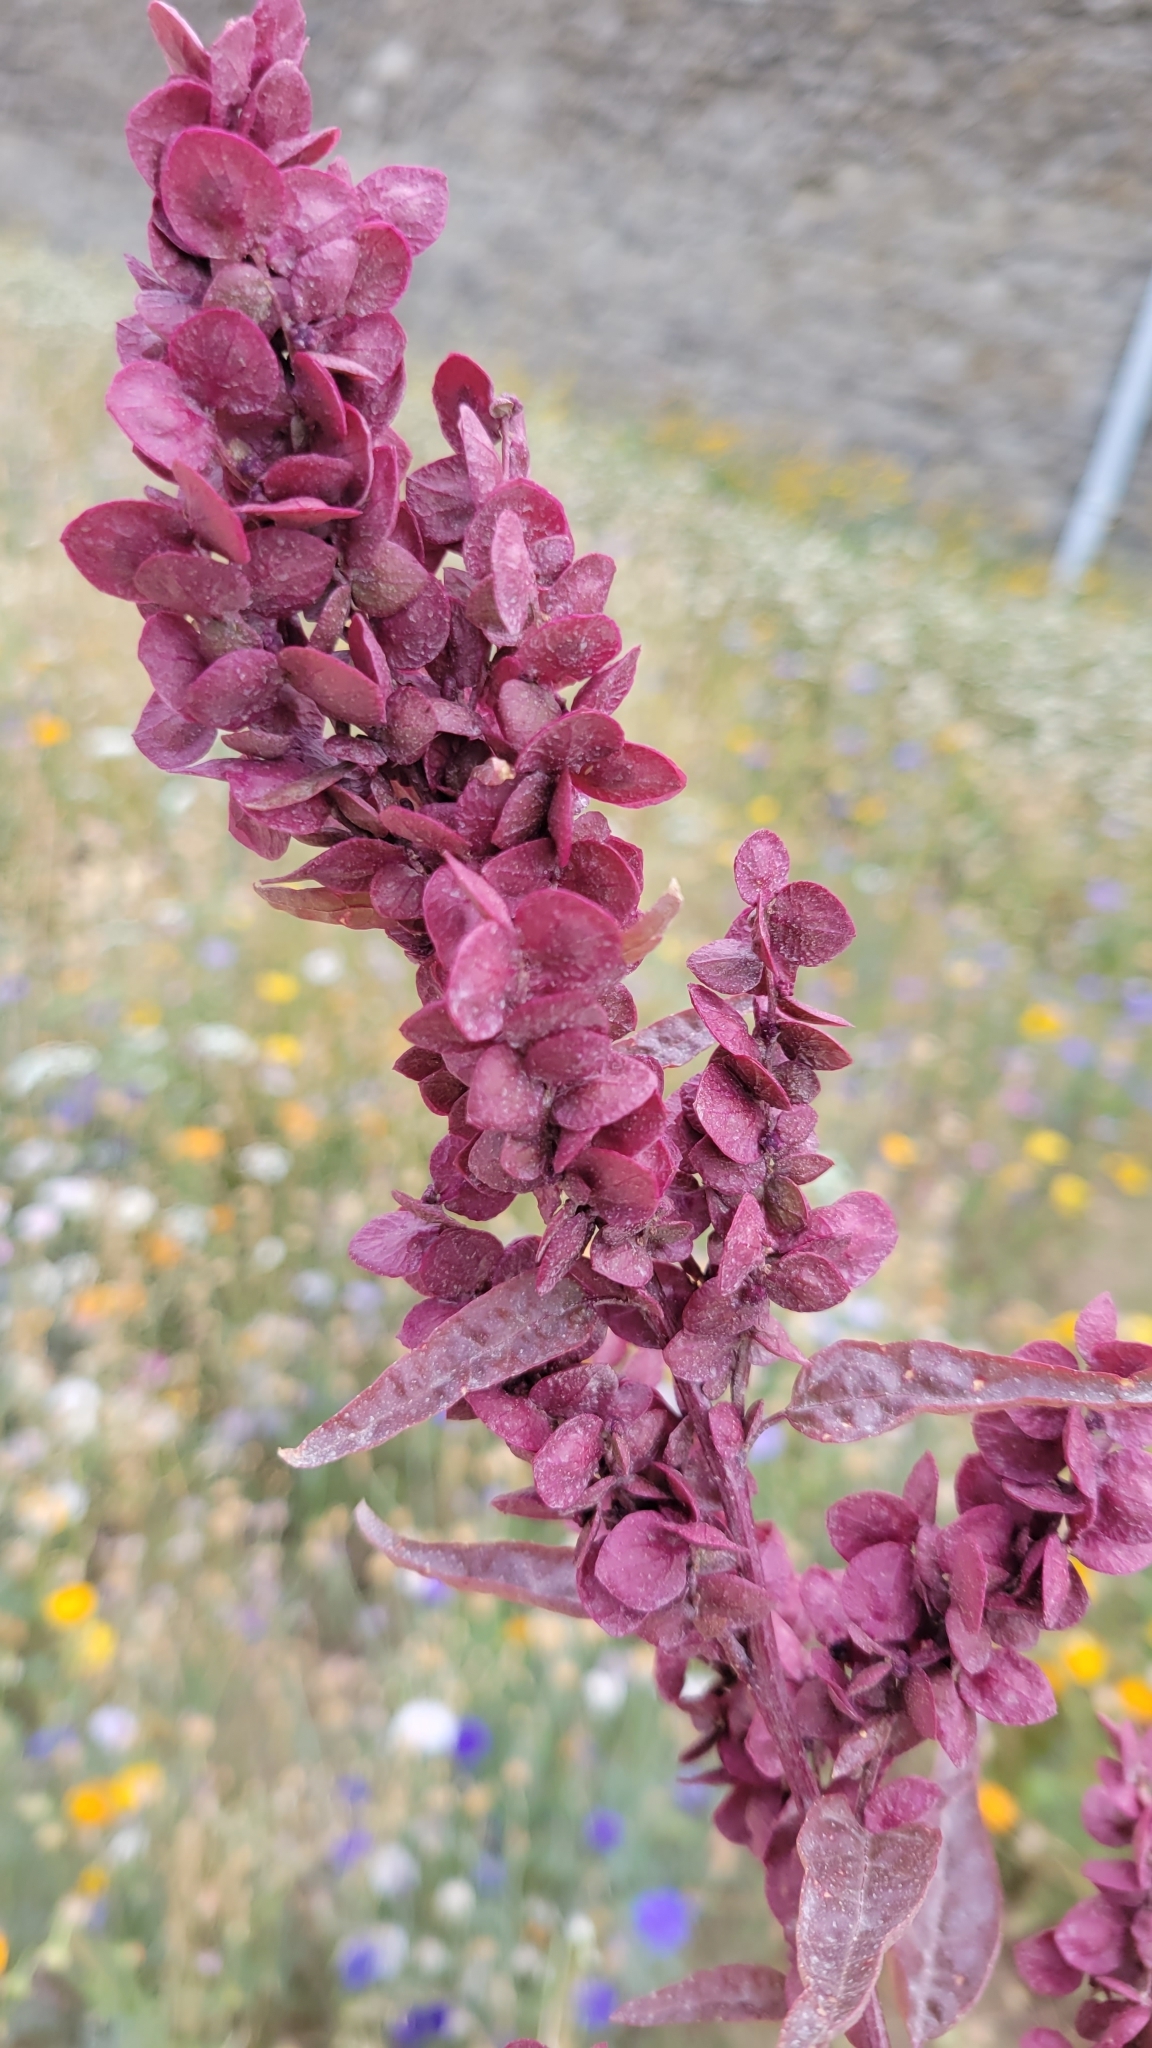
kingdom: Plantae
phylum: Tracheophyta
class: Magnoliopsida
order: Caryophyllales
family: Amaranthaceae
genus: Atriplex
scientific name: Atriplex hortensis
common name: Garden orache
